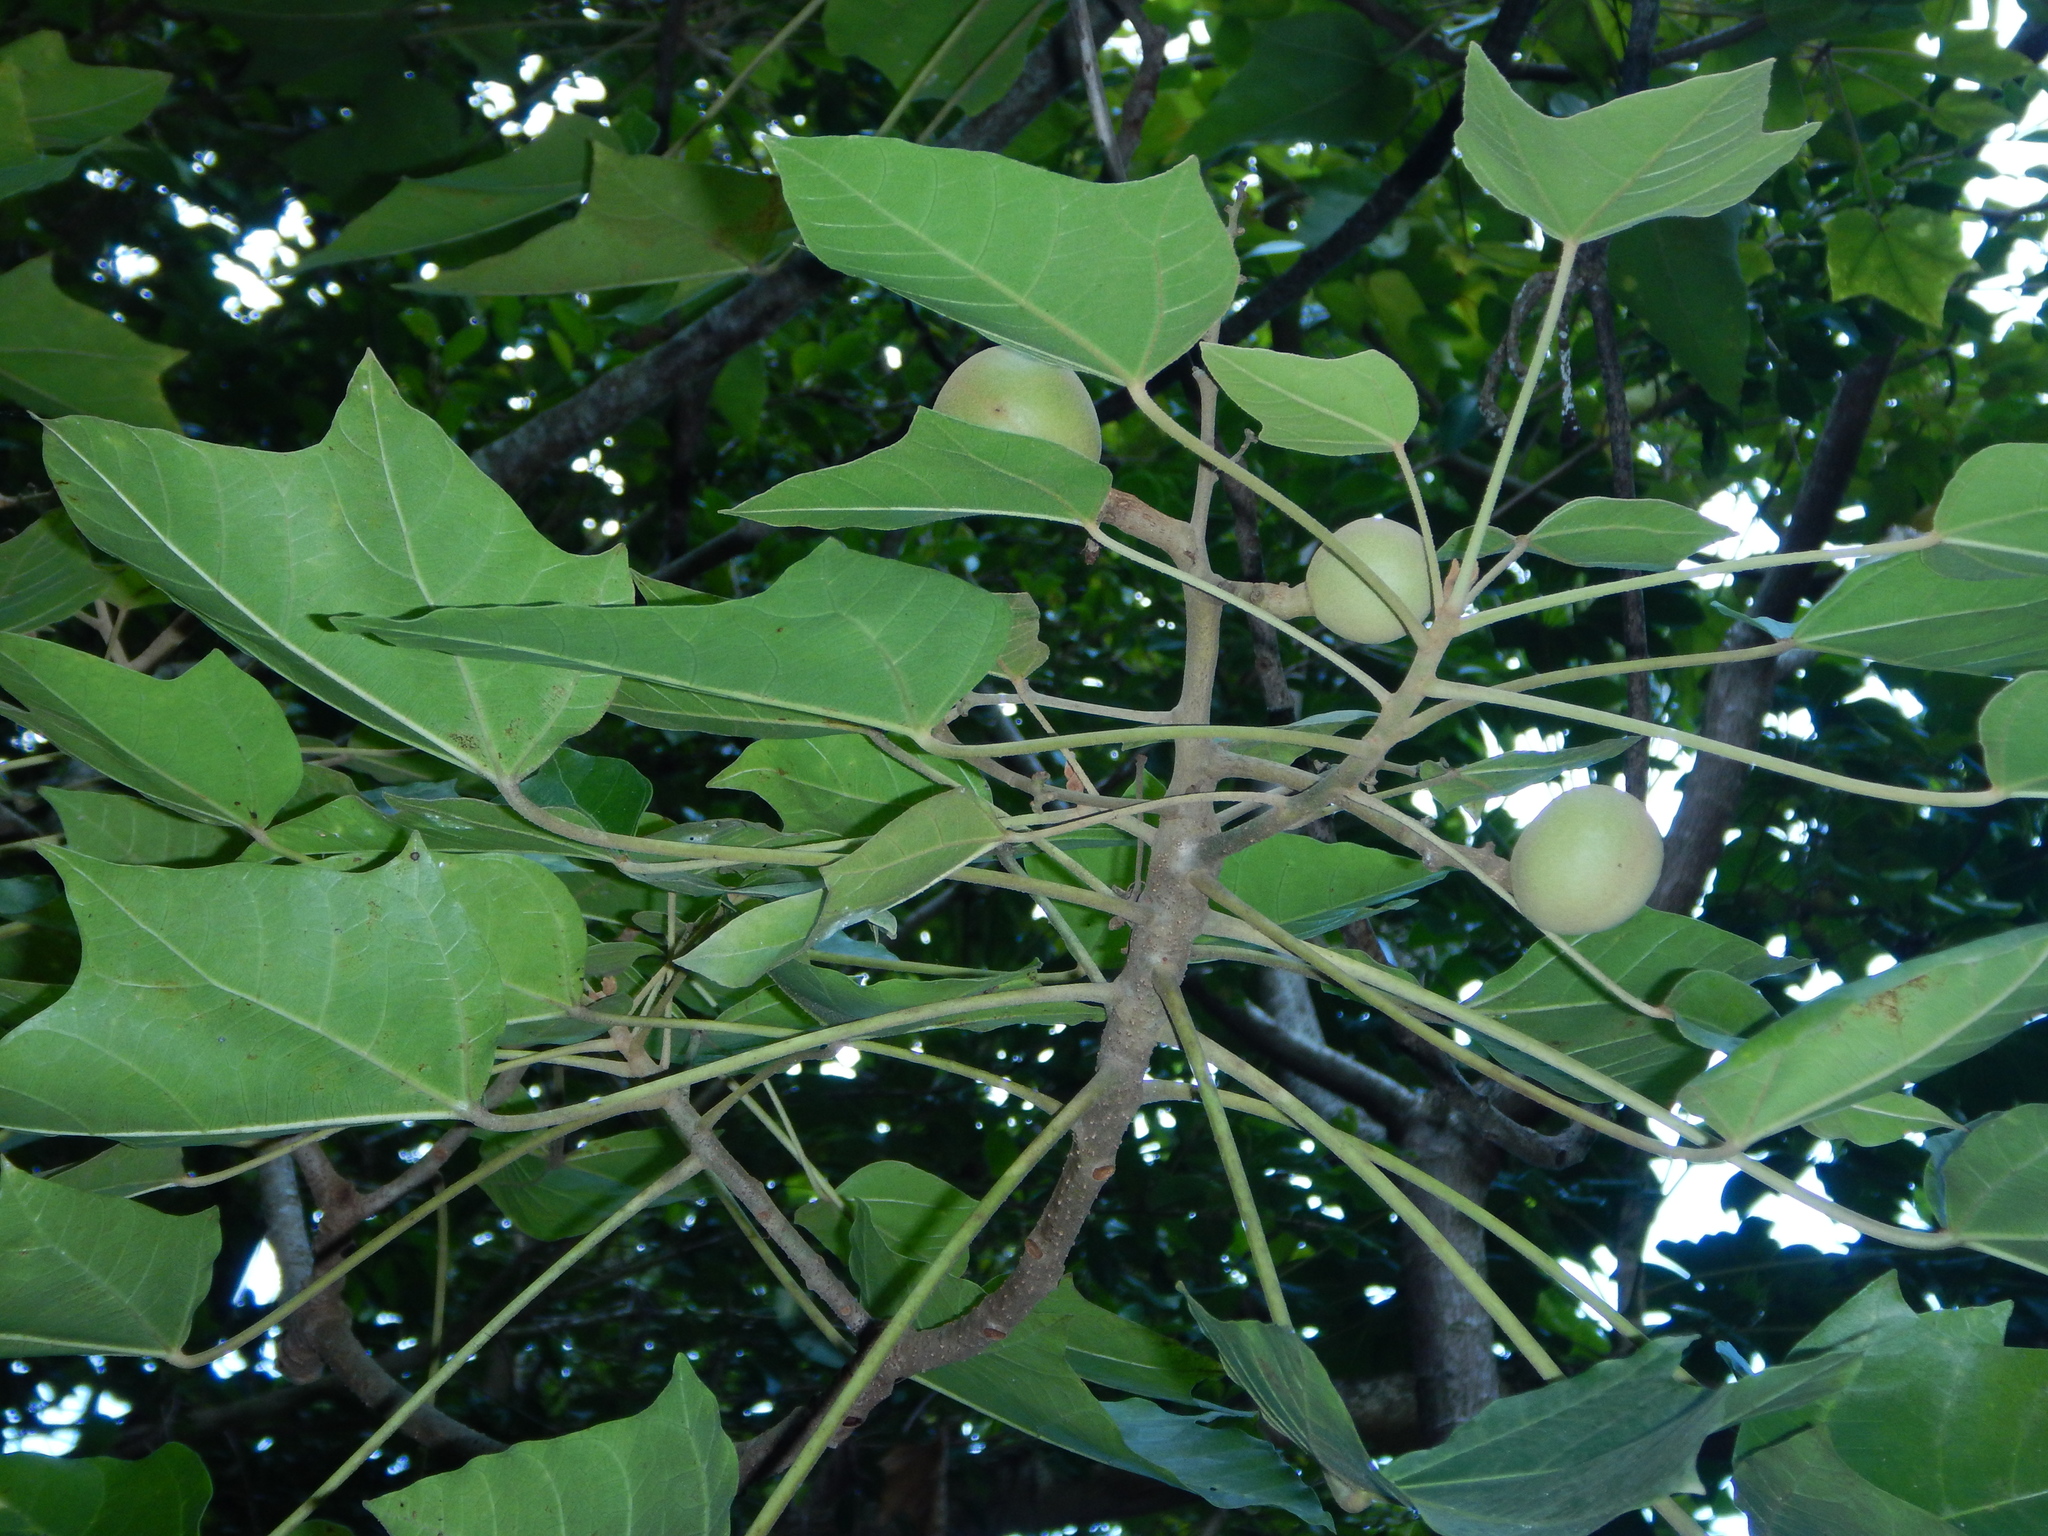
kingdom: Plantae
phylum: Tracheophyta
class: Magnoliopsida
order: Malpighiales
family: Euphorbiaceae
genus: Aleurites
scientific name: Aleurites moluccanus
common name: Candlenut tree
